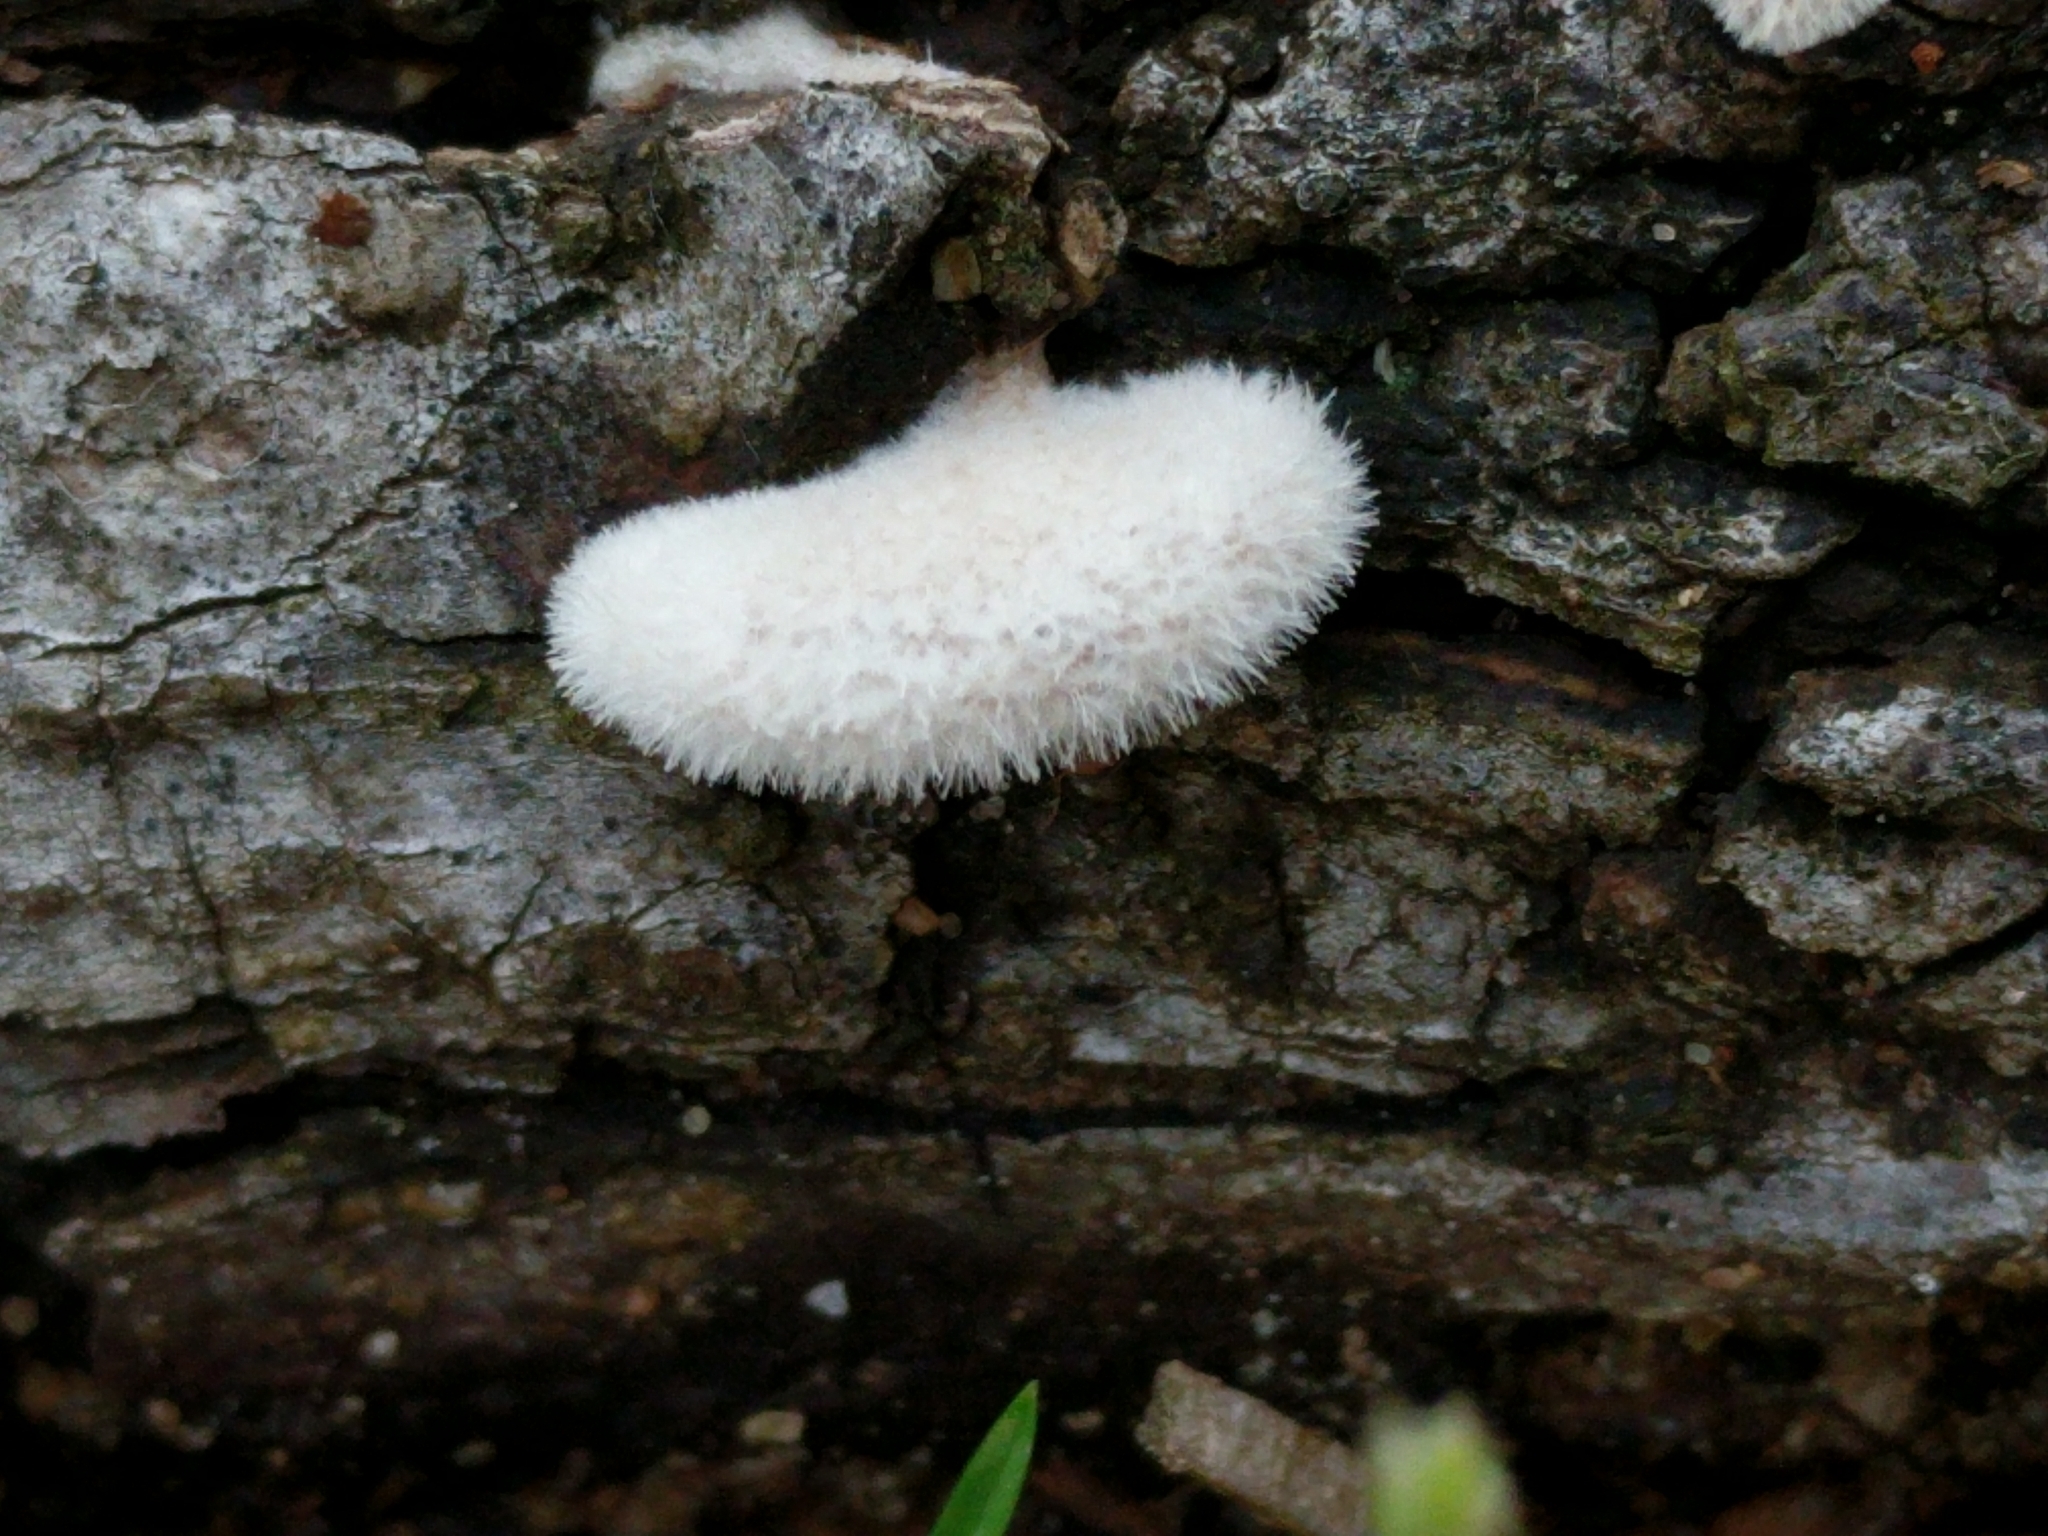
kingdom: Fungi
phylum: Basidiomycota
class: Agaricomycetes
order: Agaricales
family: Schizophyllaceae
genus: Schizophyllum
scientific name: Schizophyllum commune
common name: Common porecrust
